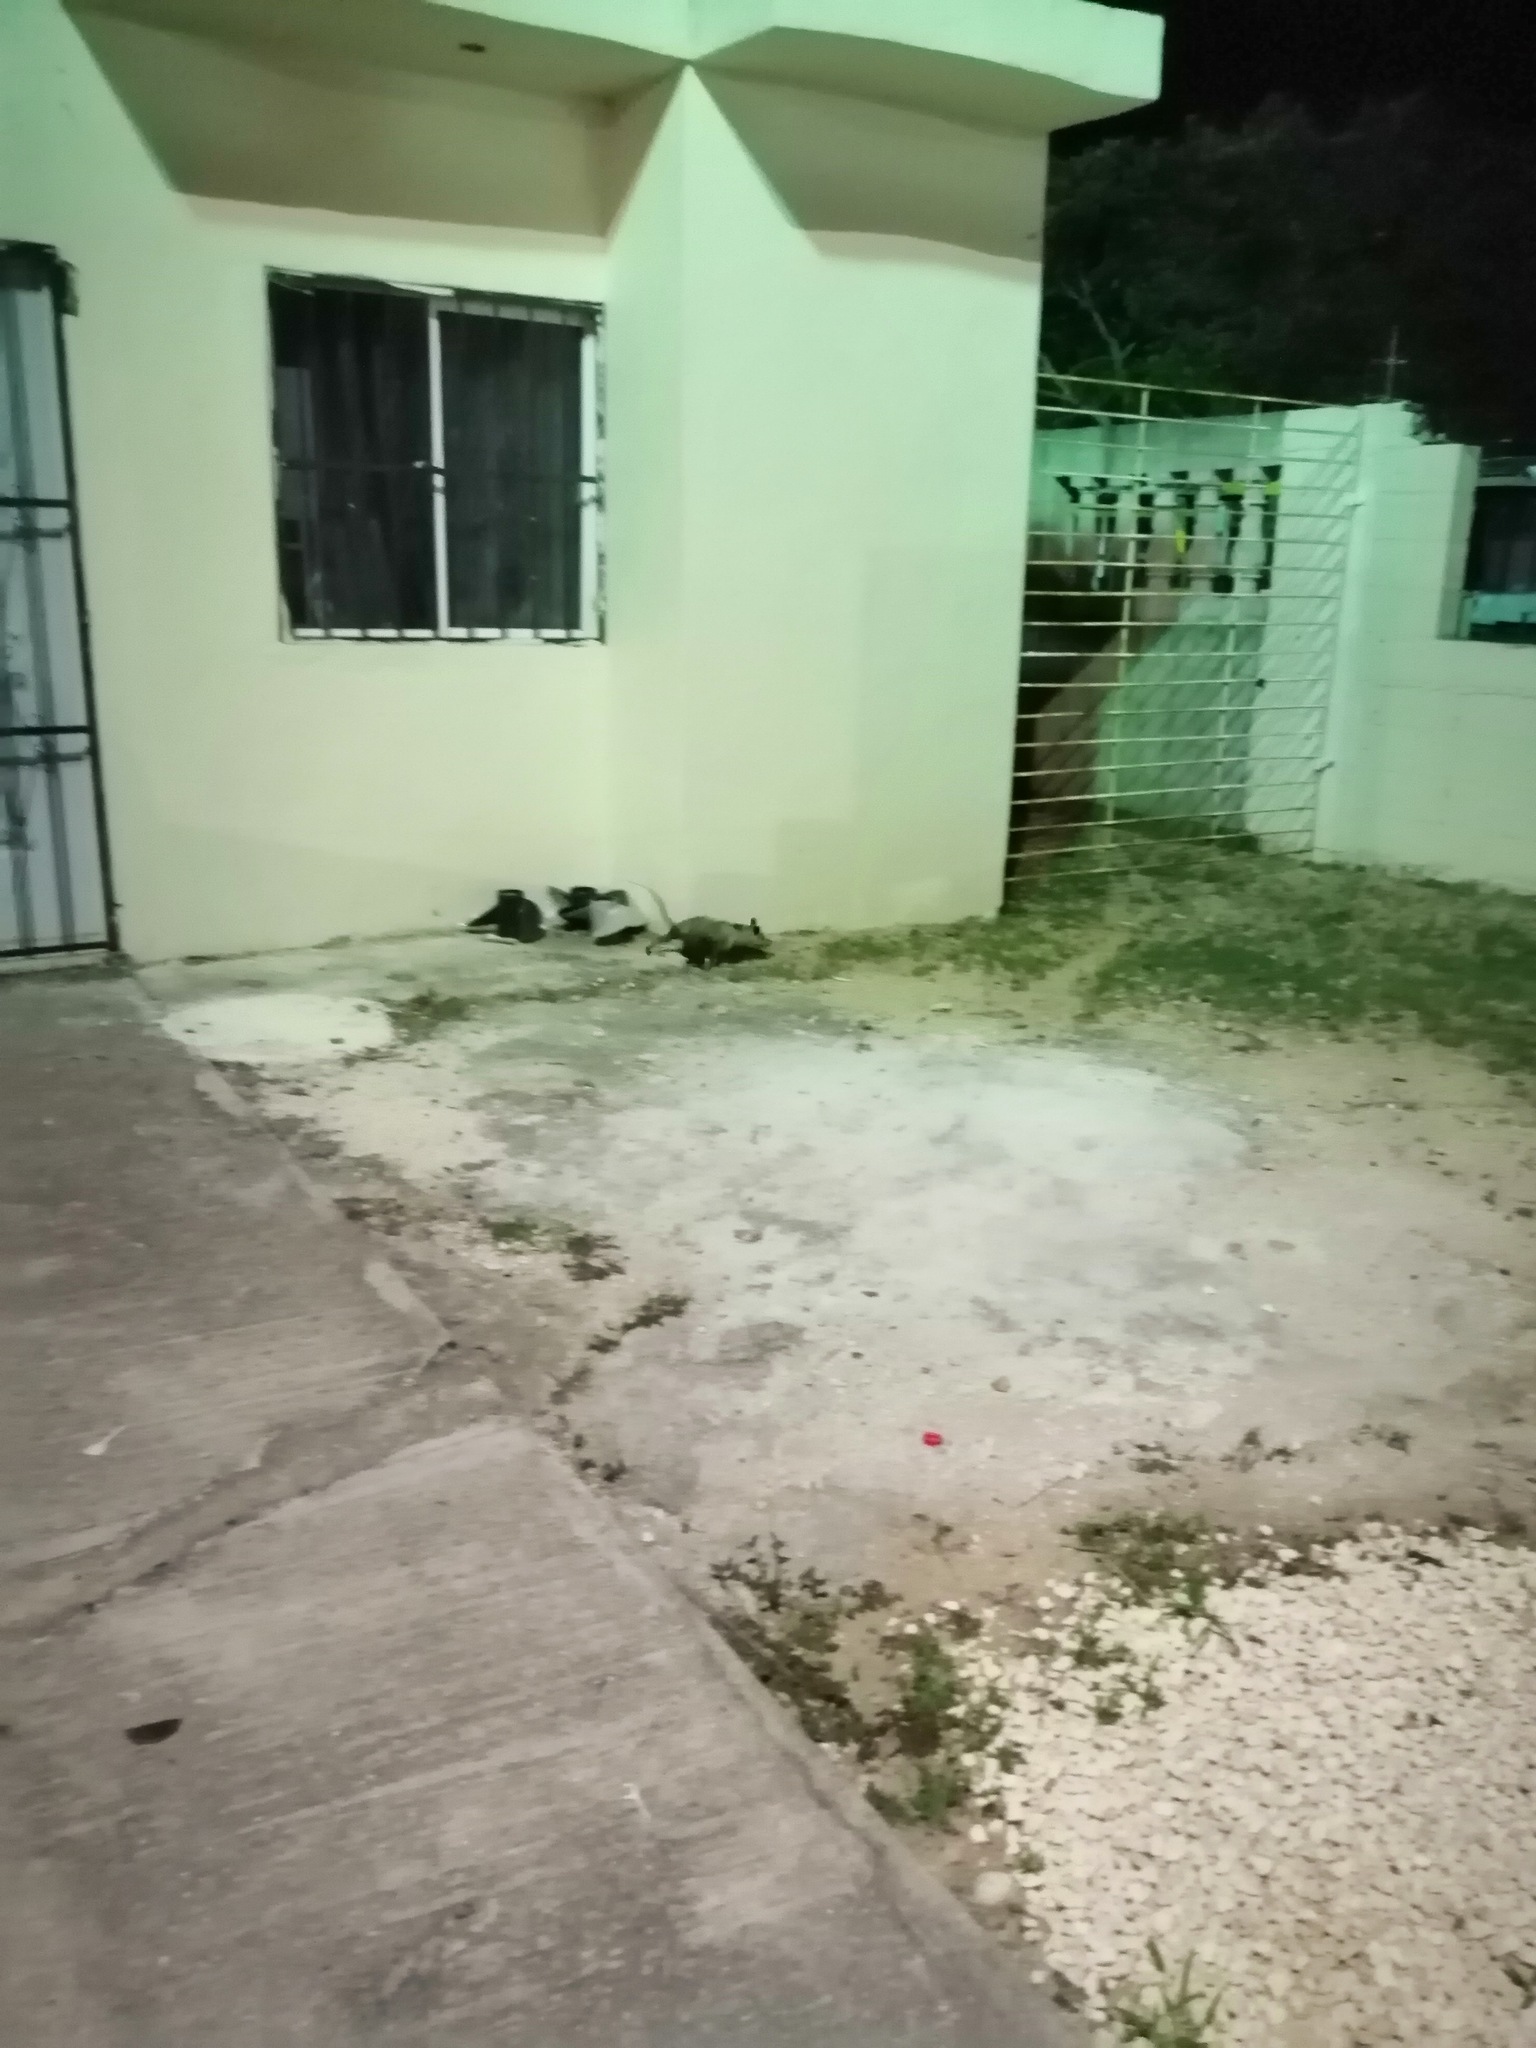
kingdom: Animalia
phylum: Chordata
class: Mammalia
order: Didelphimorphia
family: Didelphidae
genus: Didelphis
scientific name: Didelphis virginiana
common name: Virginia opossum
